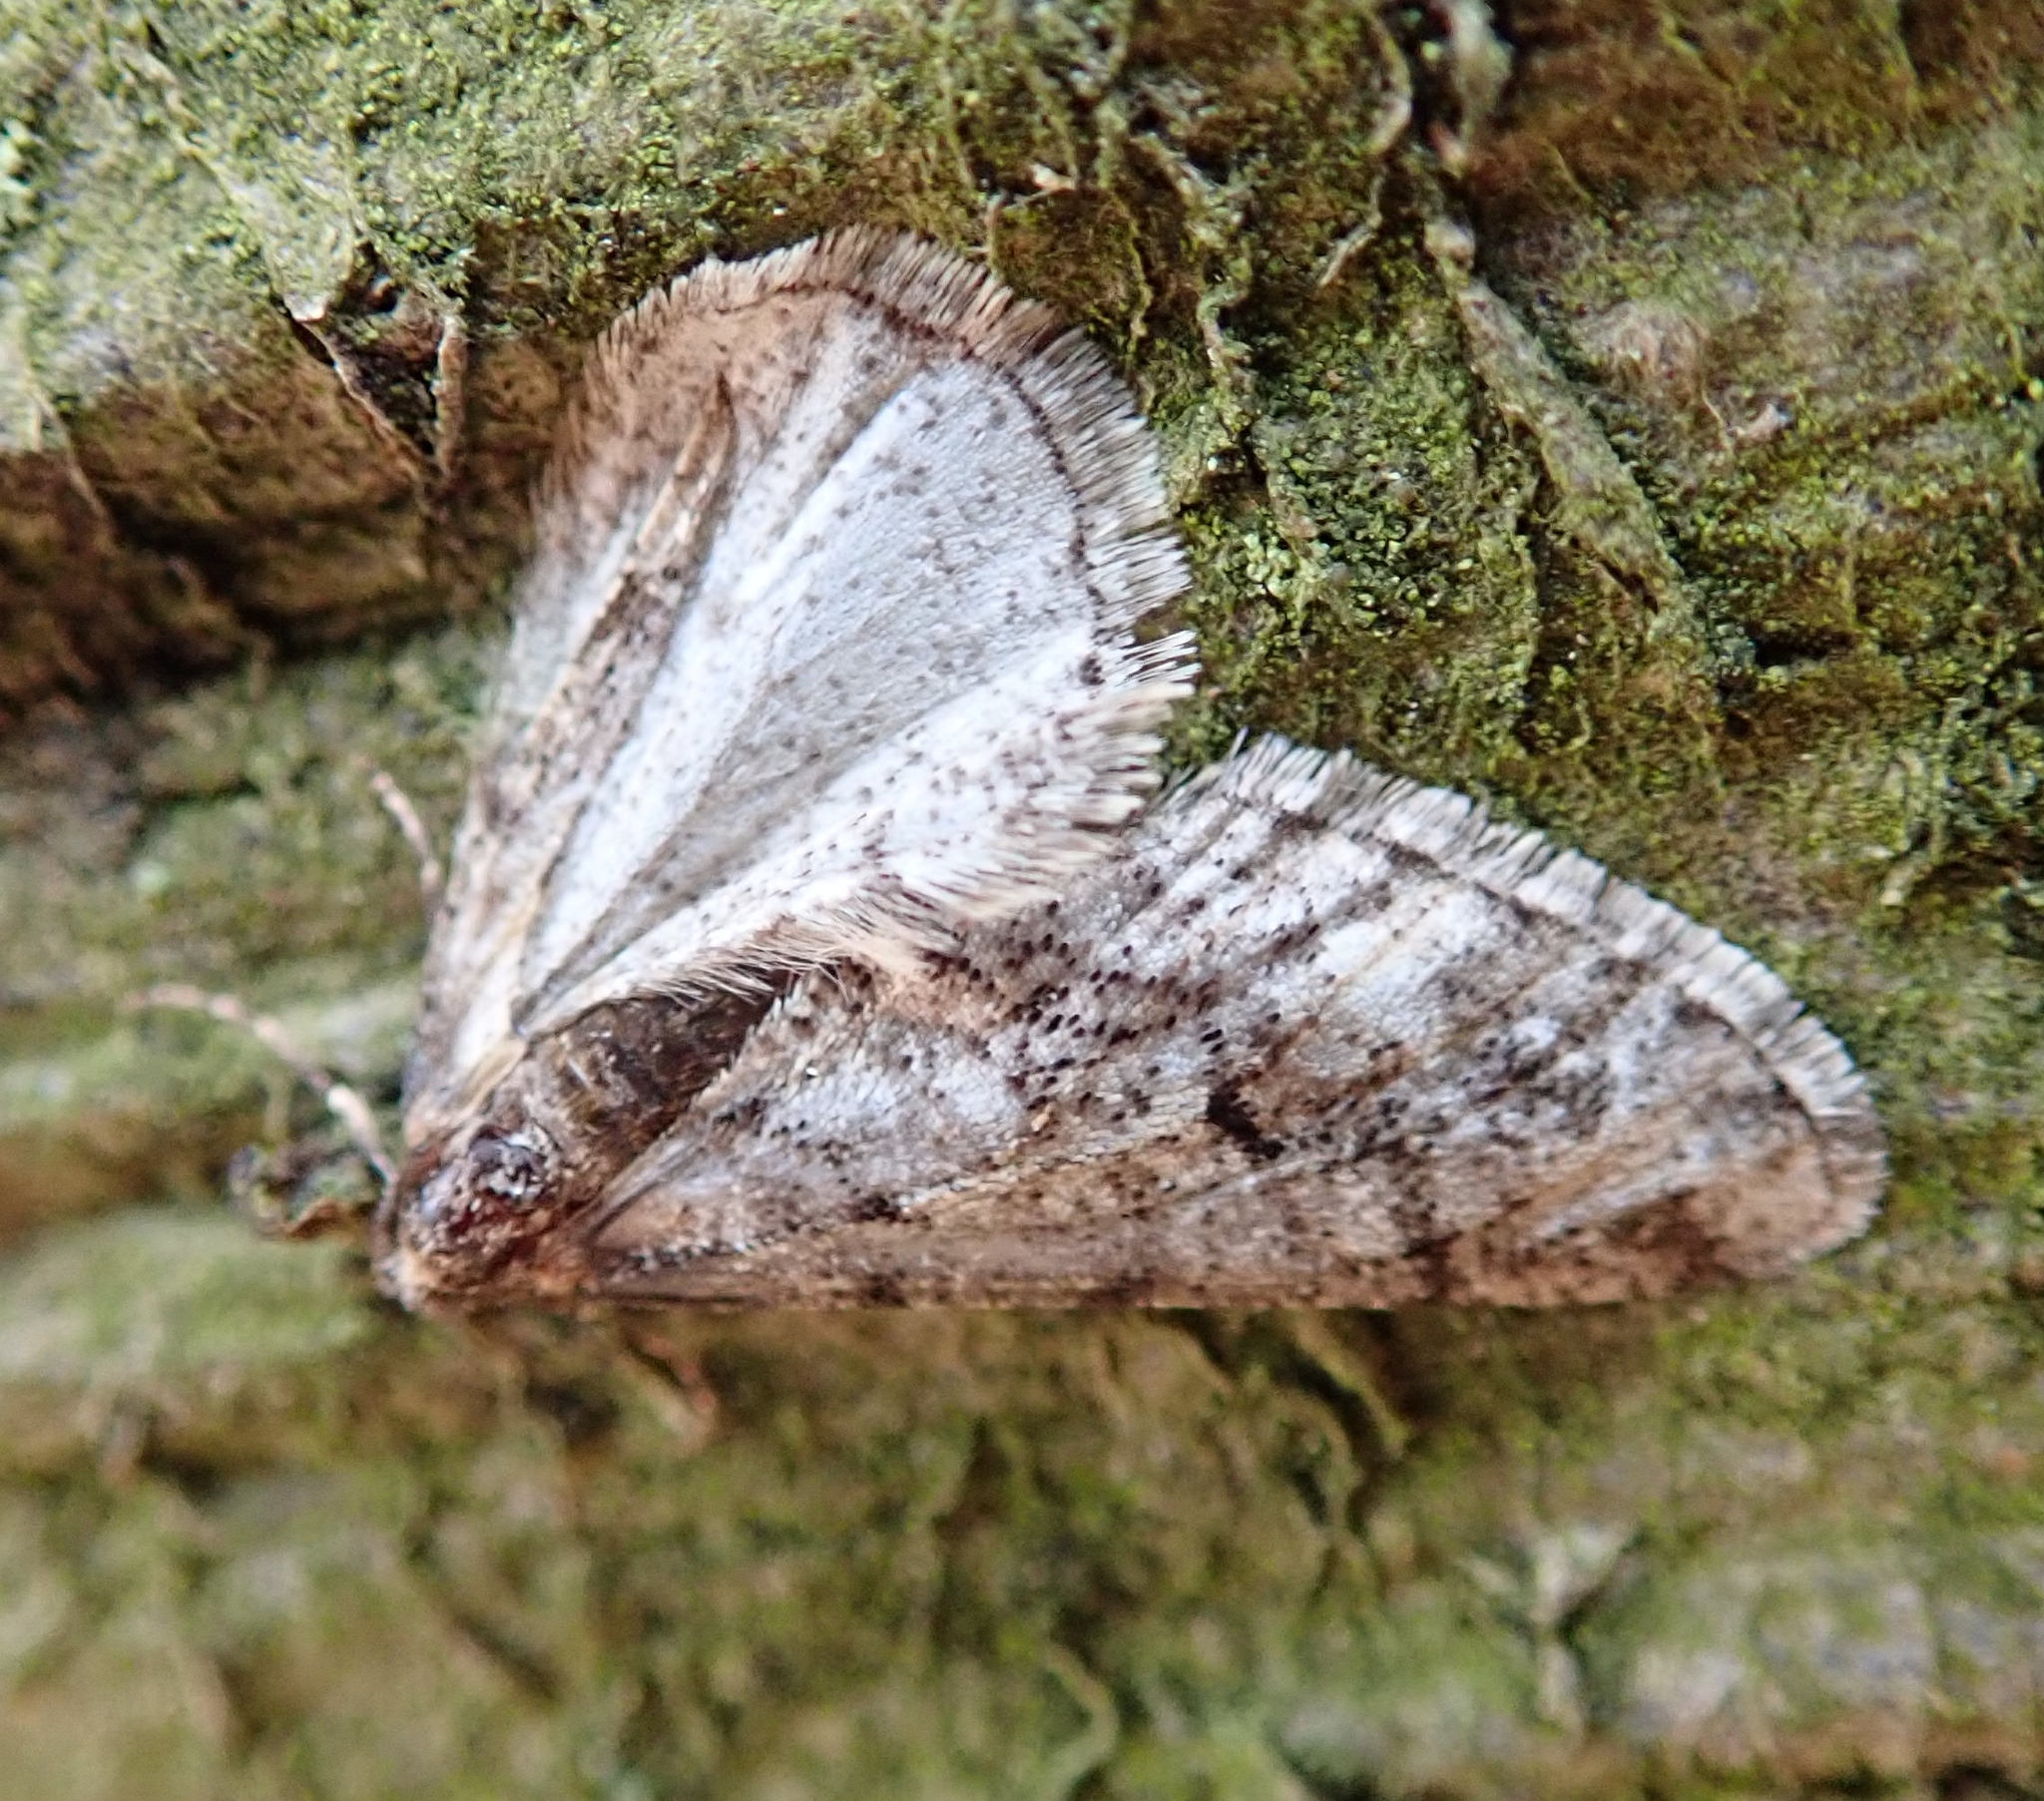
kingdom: Animalia
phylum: Arthropoda
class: Insecta
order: Lepidoptera
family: Geometridae
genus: Agriopis
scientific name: Agriopis leucophaearia
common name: Spring usher
